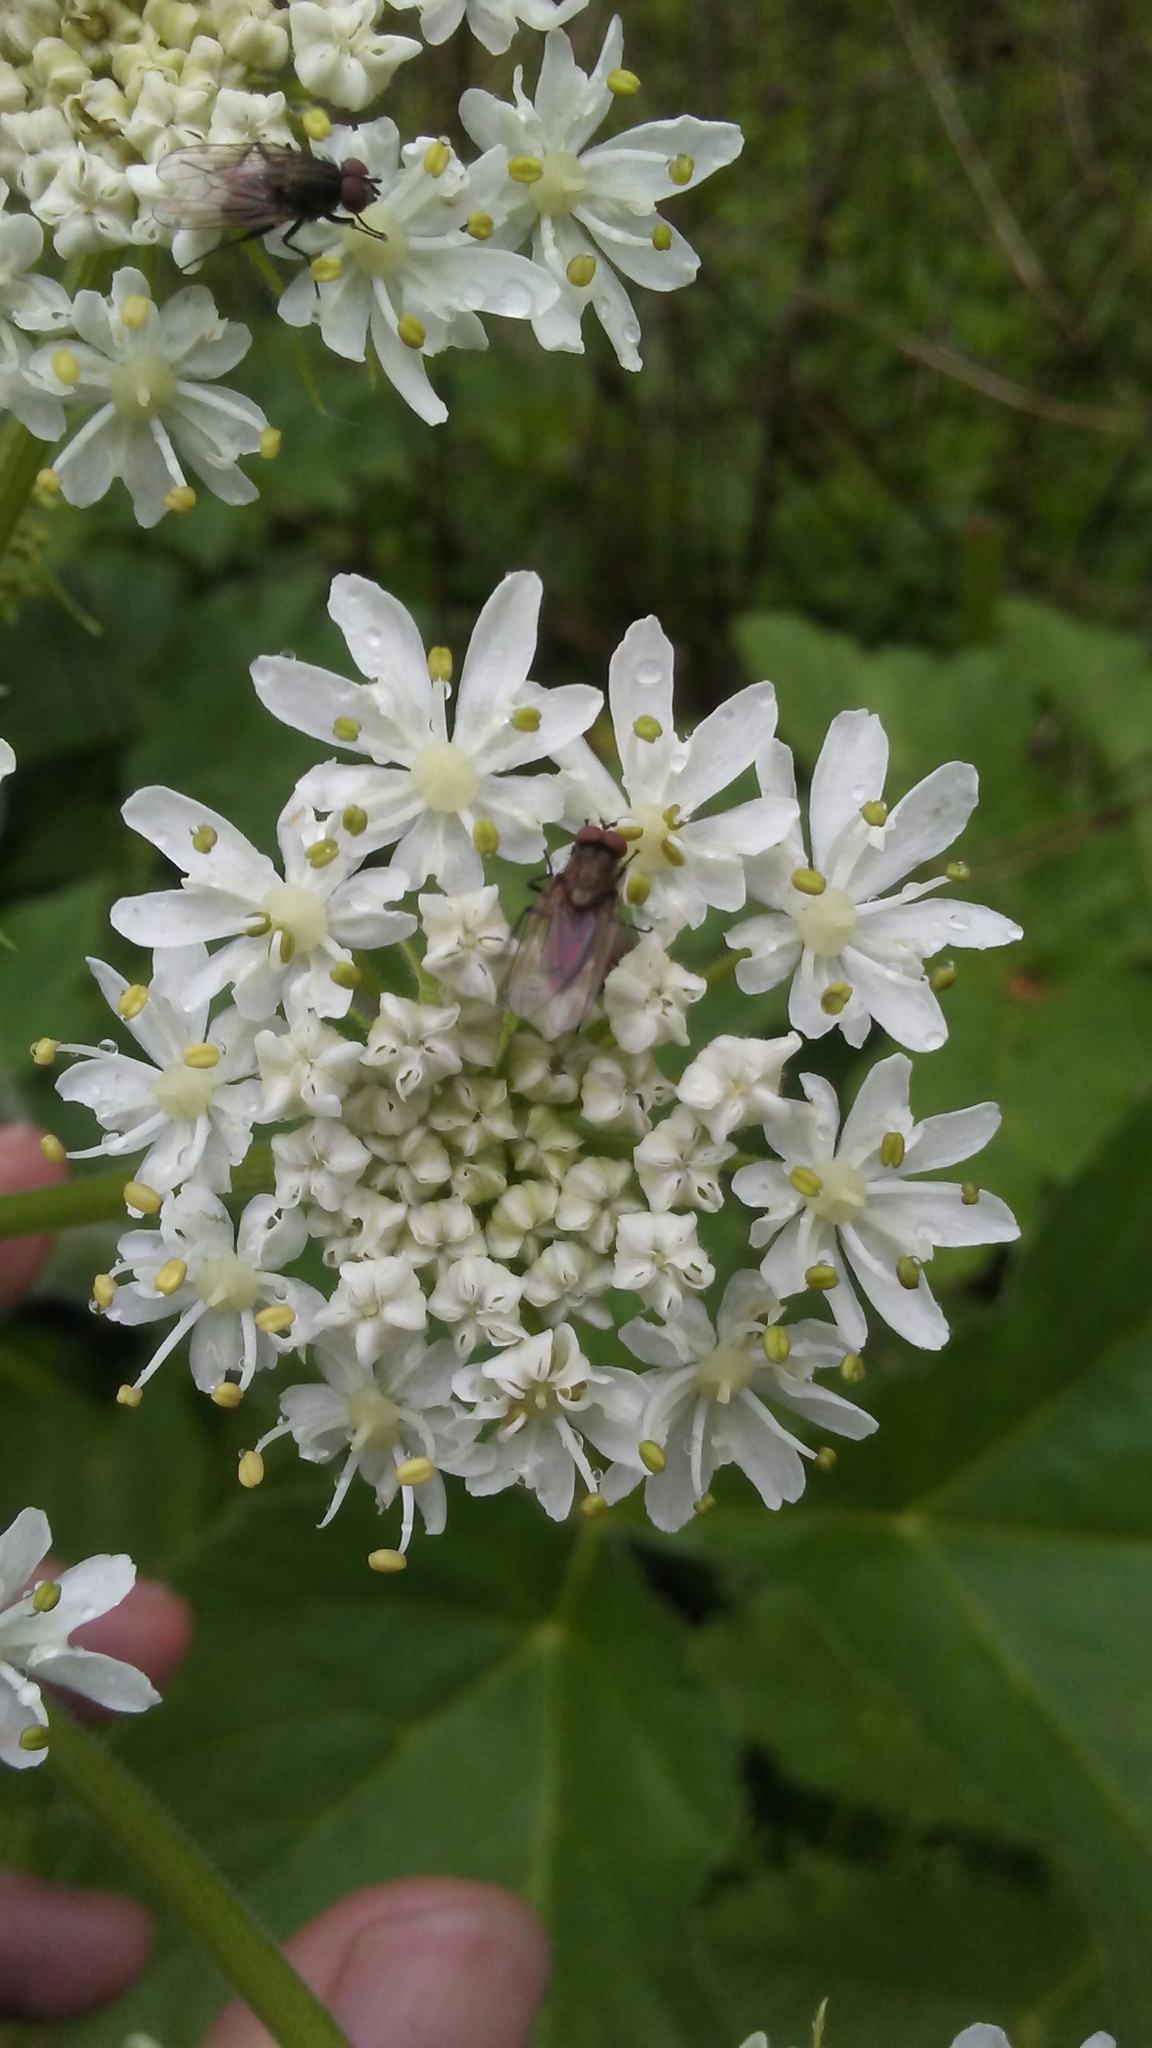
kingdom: Plantae
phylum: Tracheophyta
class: Magnoliopsida
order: Apiales
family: Apiaceae
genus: Heracleum
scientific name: Heracleum maximum
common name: American cow parsnip
